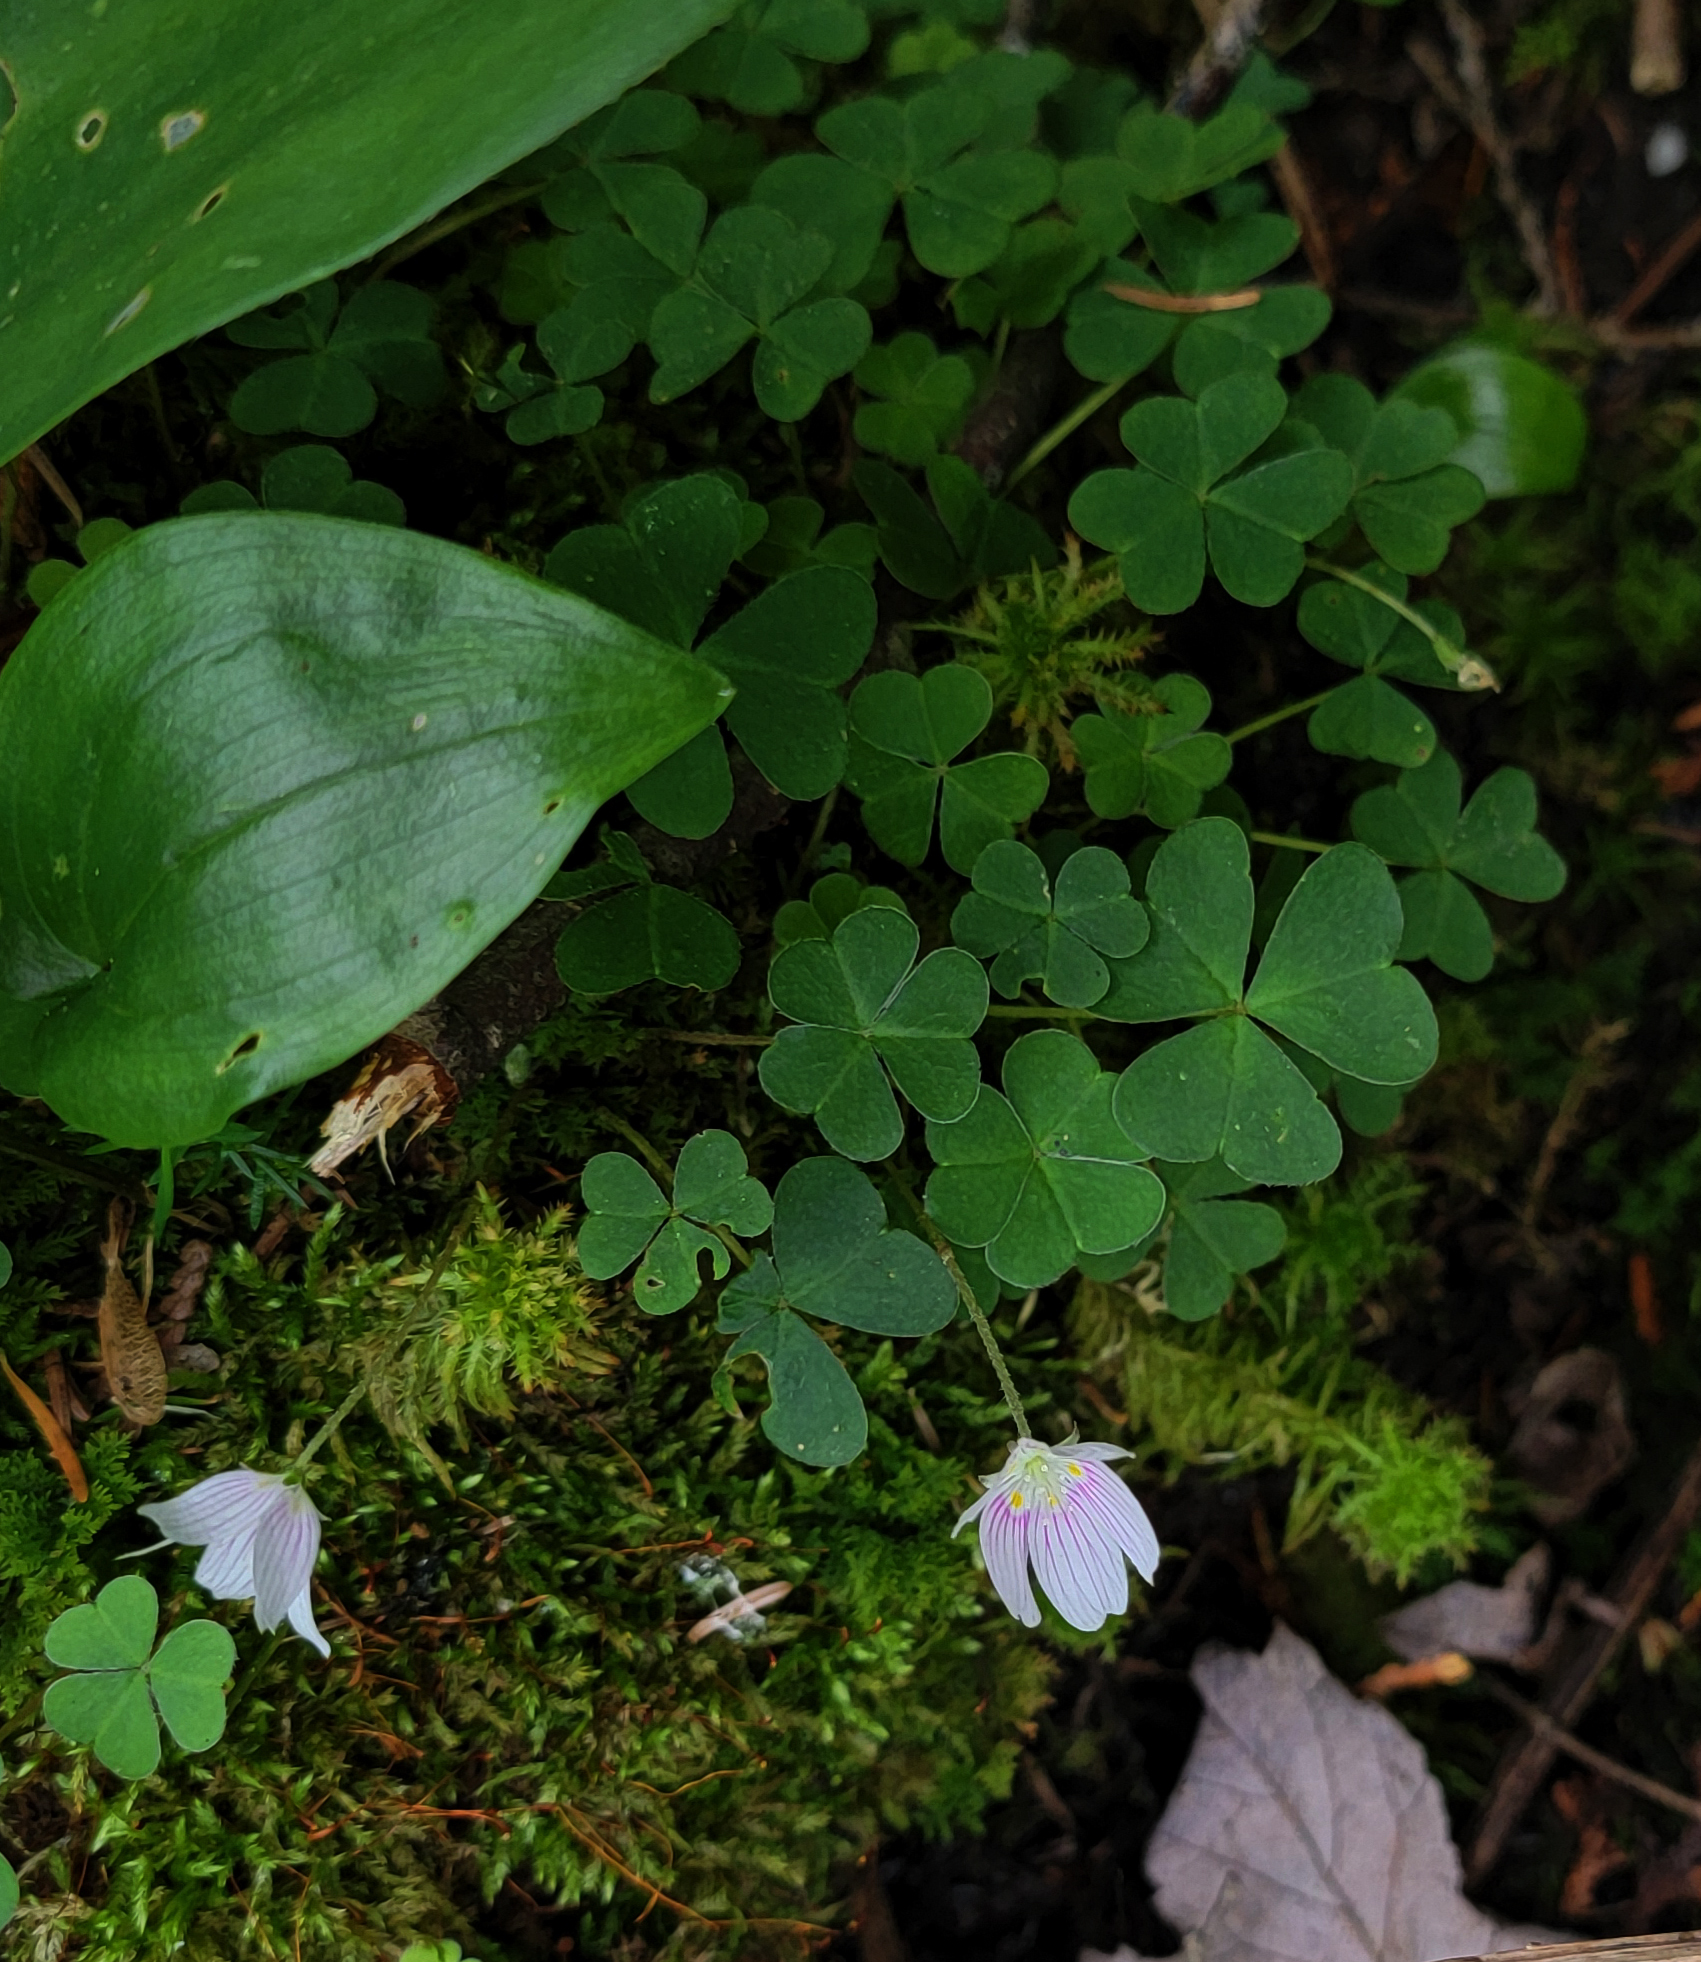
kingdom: Plantae
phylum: Tracheophyta
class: Magnoliopsida
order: Oxalidales
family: Oxalidaceae
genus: Oxalis
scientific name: Oxalis montana
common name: American wood-sorrel
